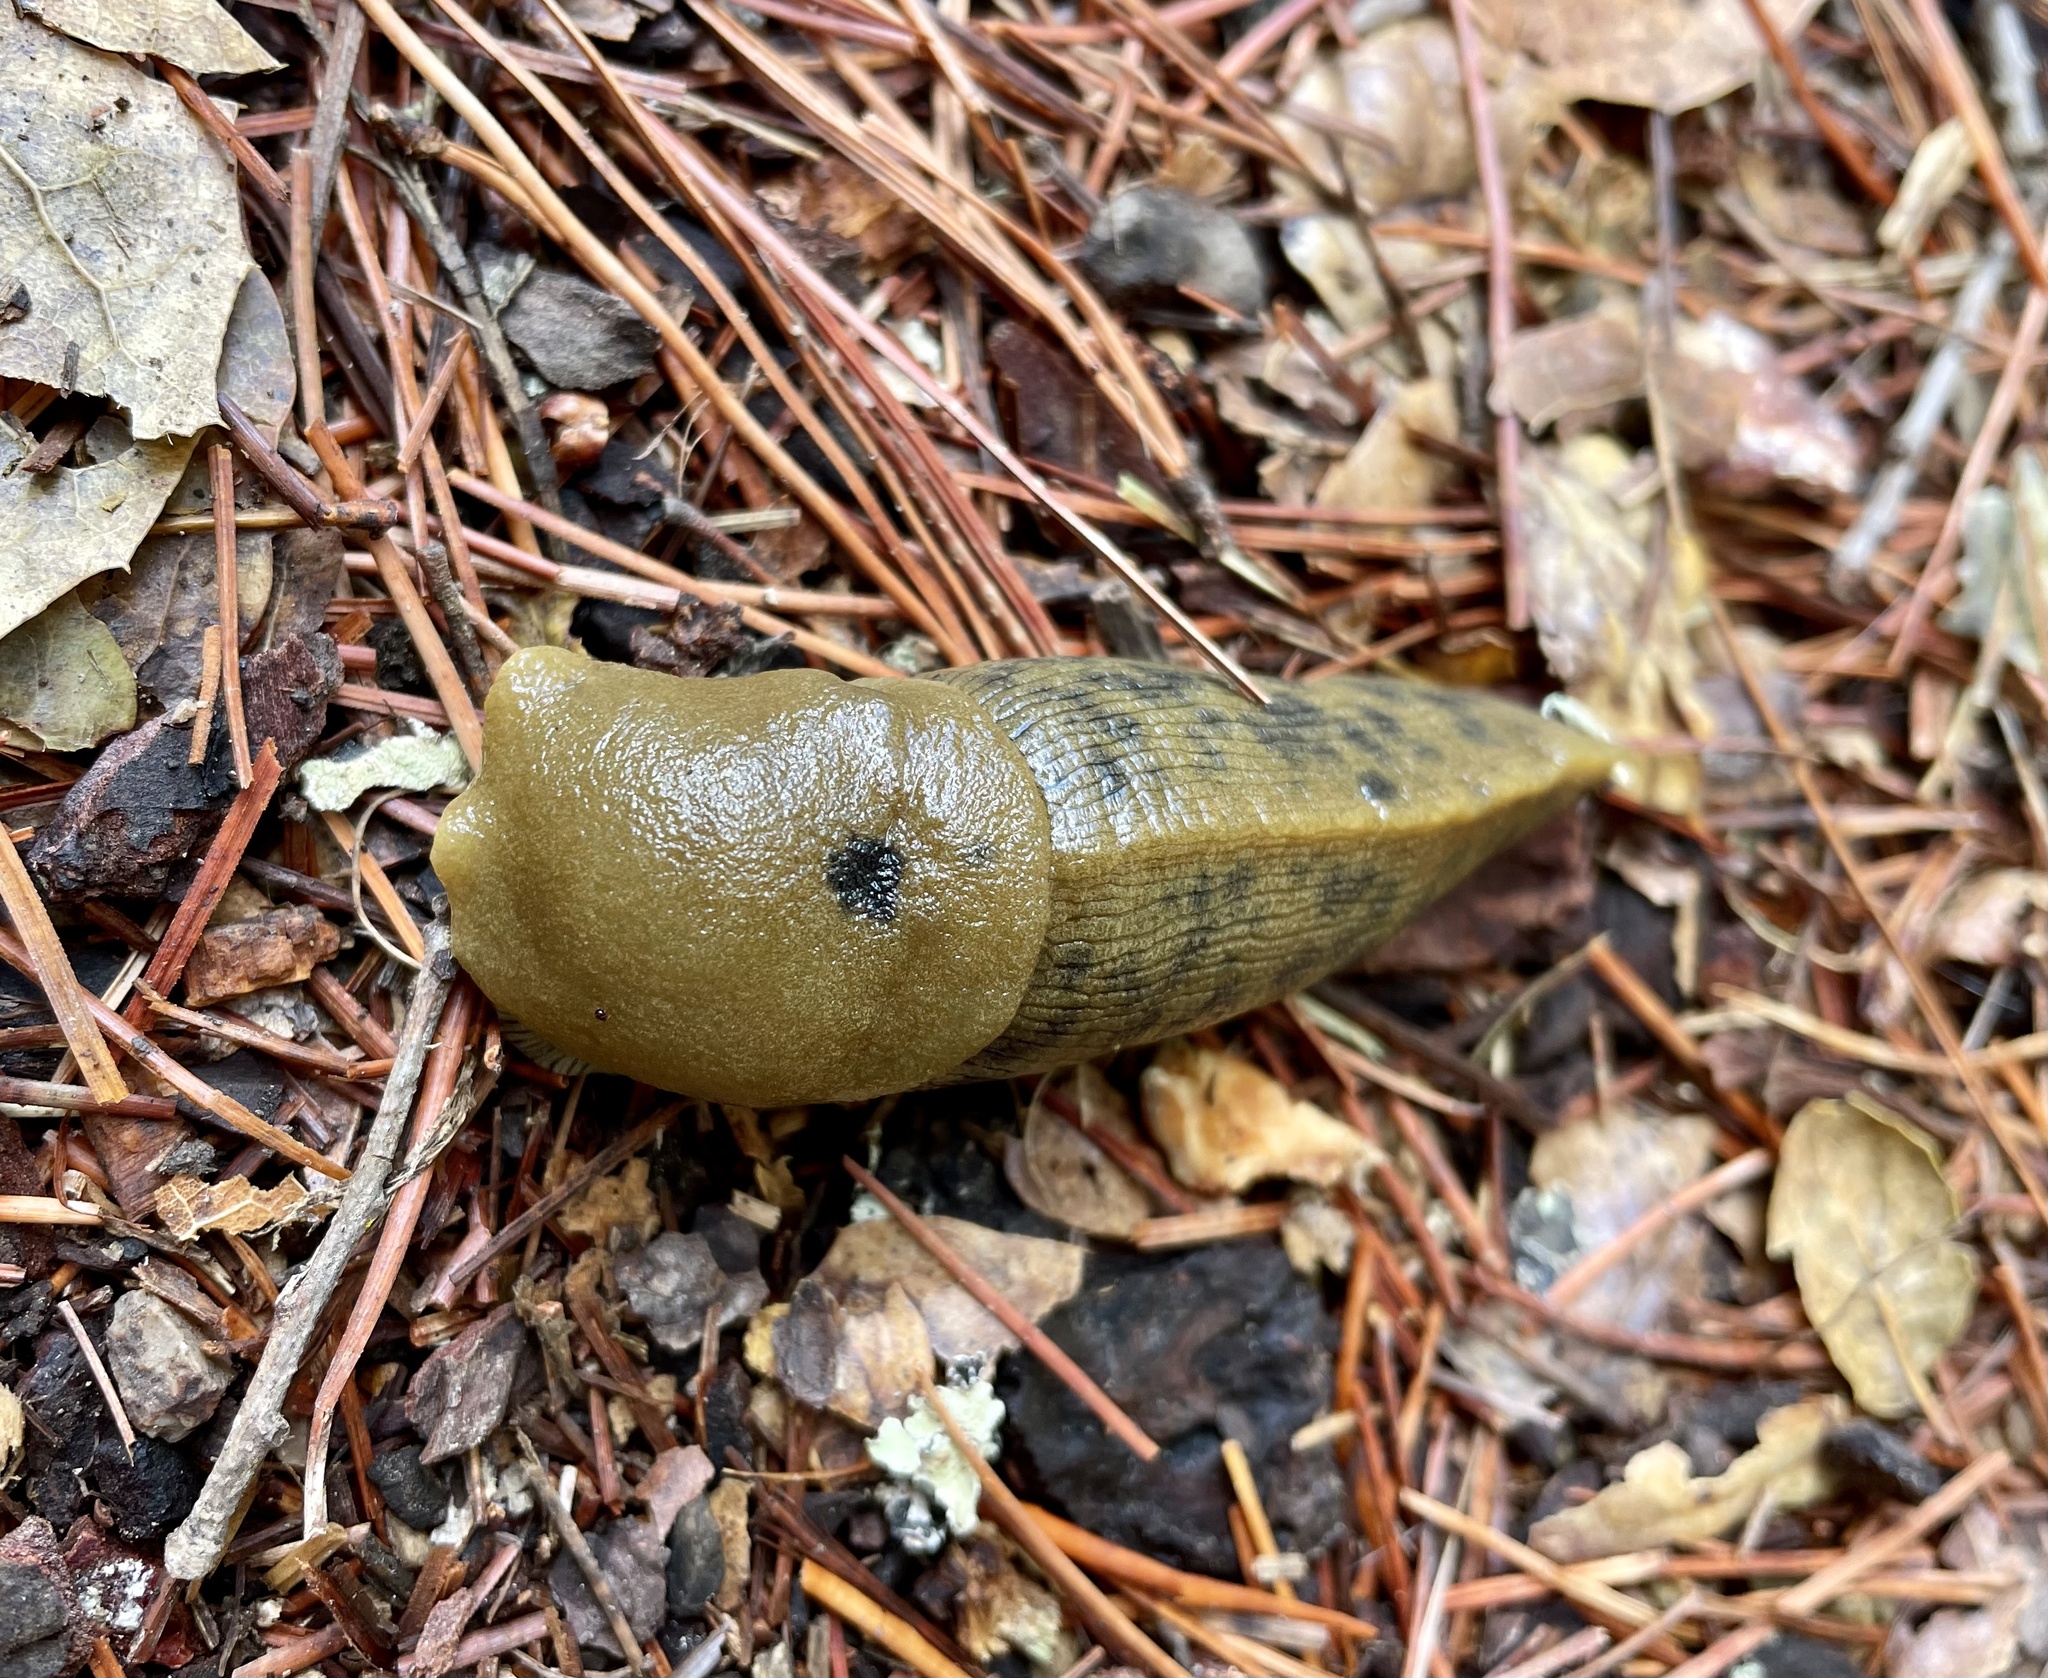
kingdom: Animalia
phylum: Mollusca
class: Gastropoda
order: Stylommatophora
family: Ariolimacidae
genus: Ariolimax
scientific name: Ariolimax buttoni
